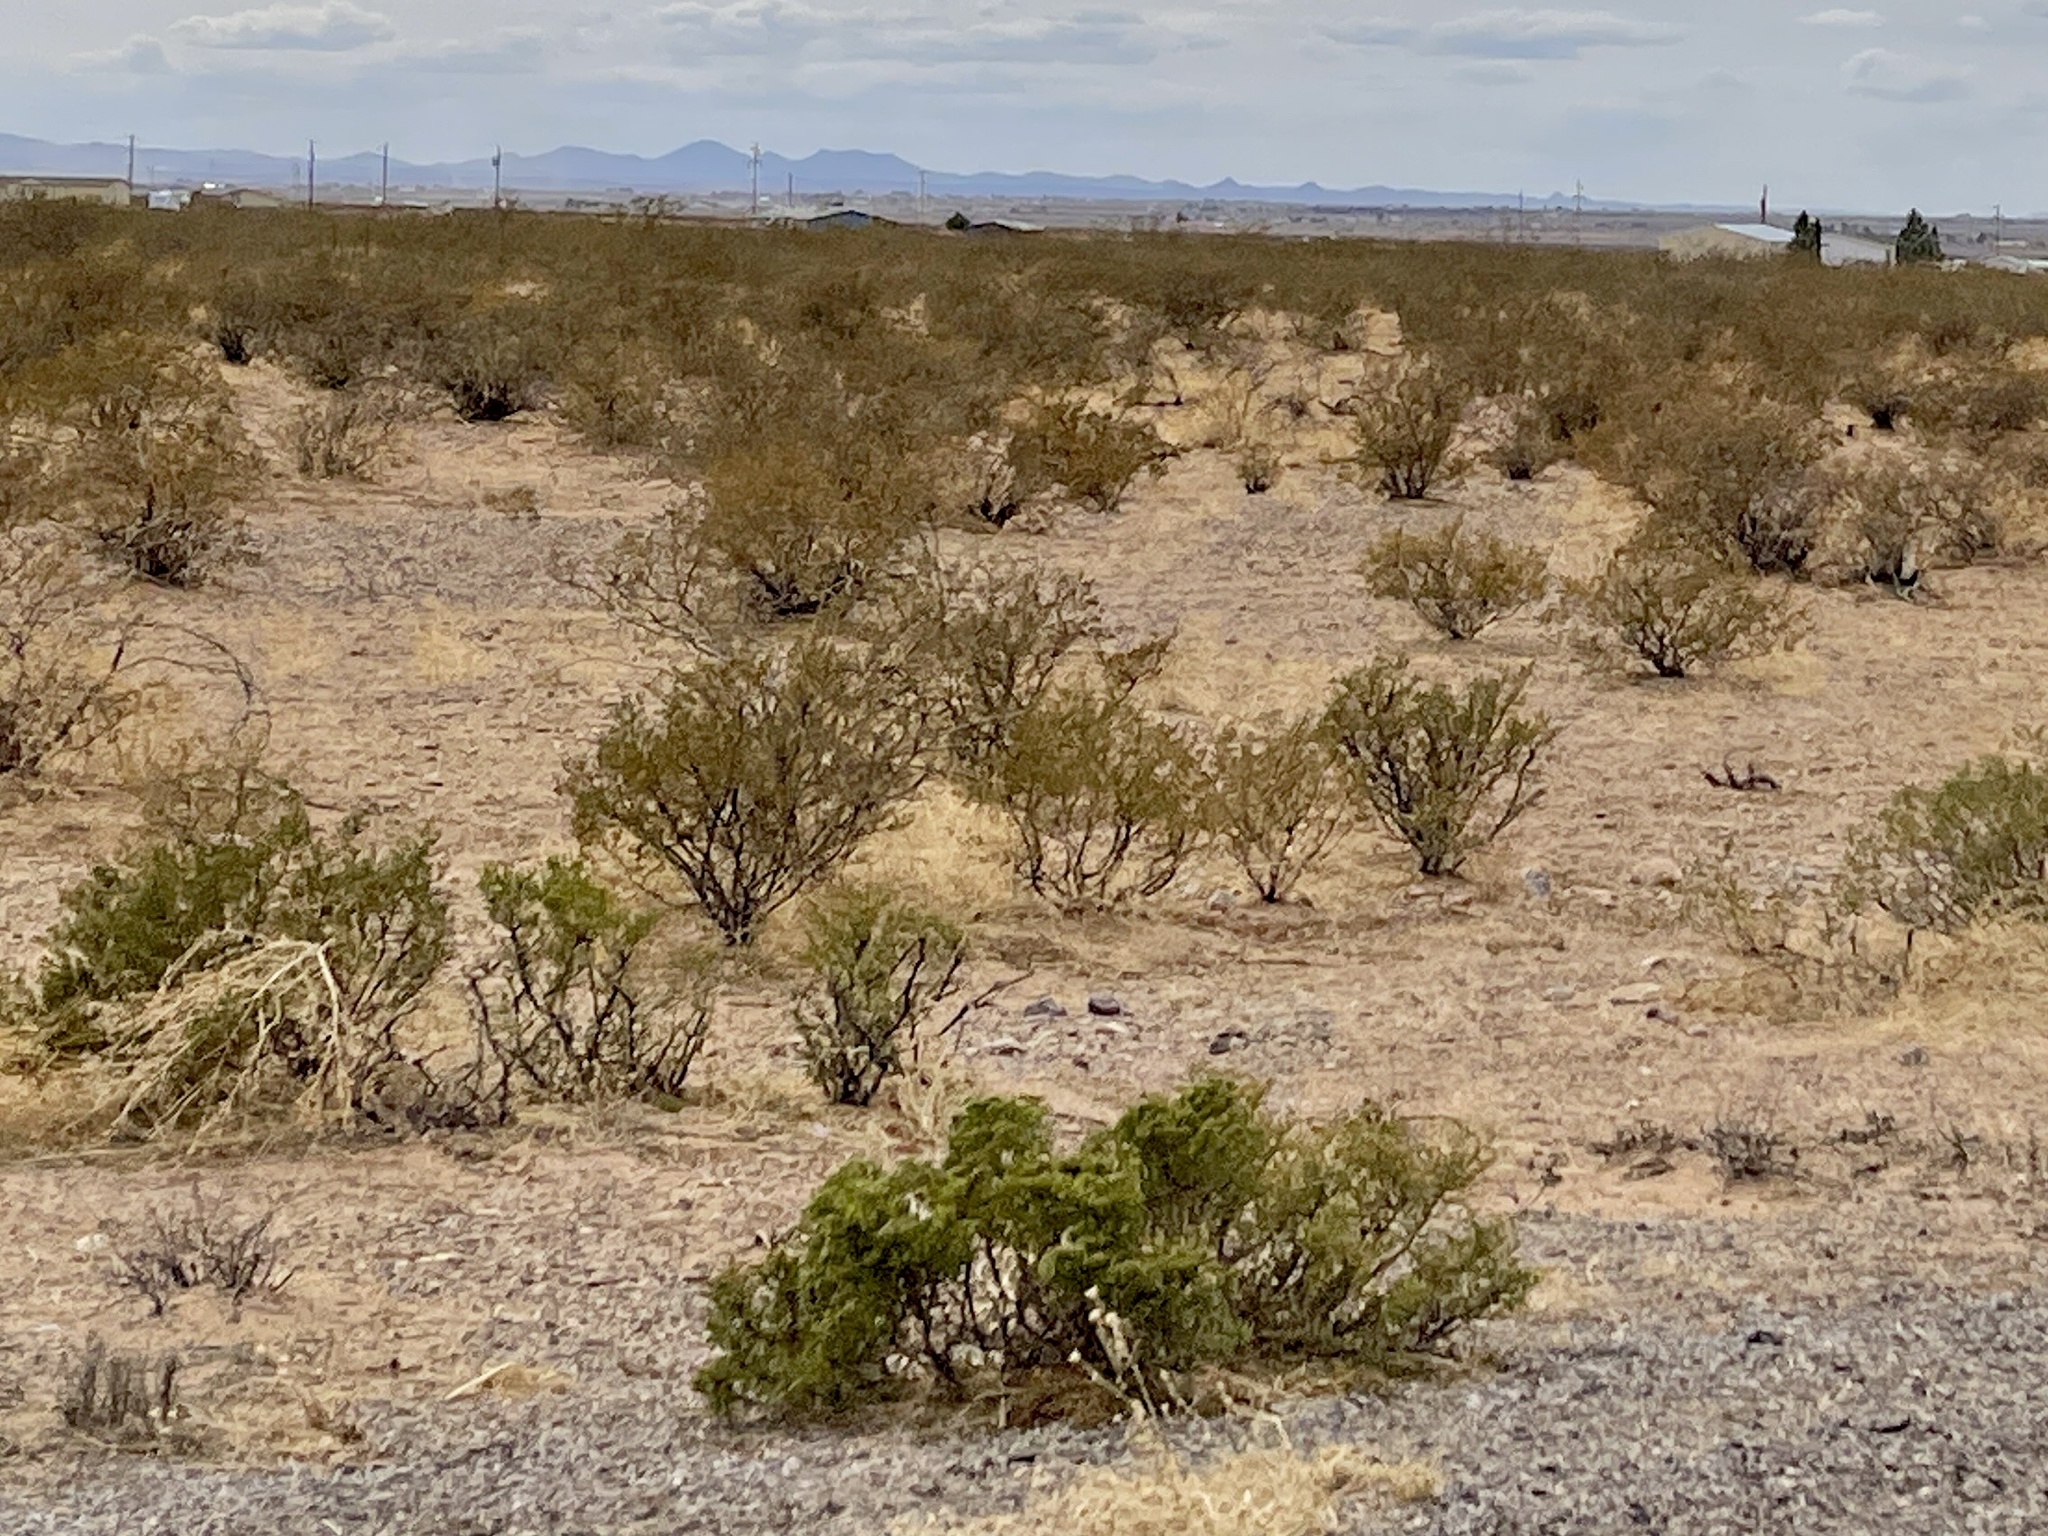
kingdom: Plantae
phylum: Tracheophyta
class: Magnoliopsida
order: Zygophyllales
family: Zygophyllaceae
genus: Larrea
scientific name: Larrea tridentata
